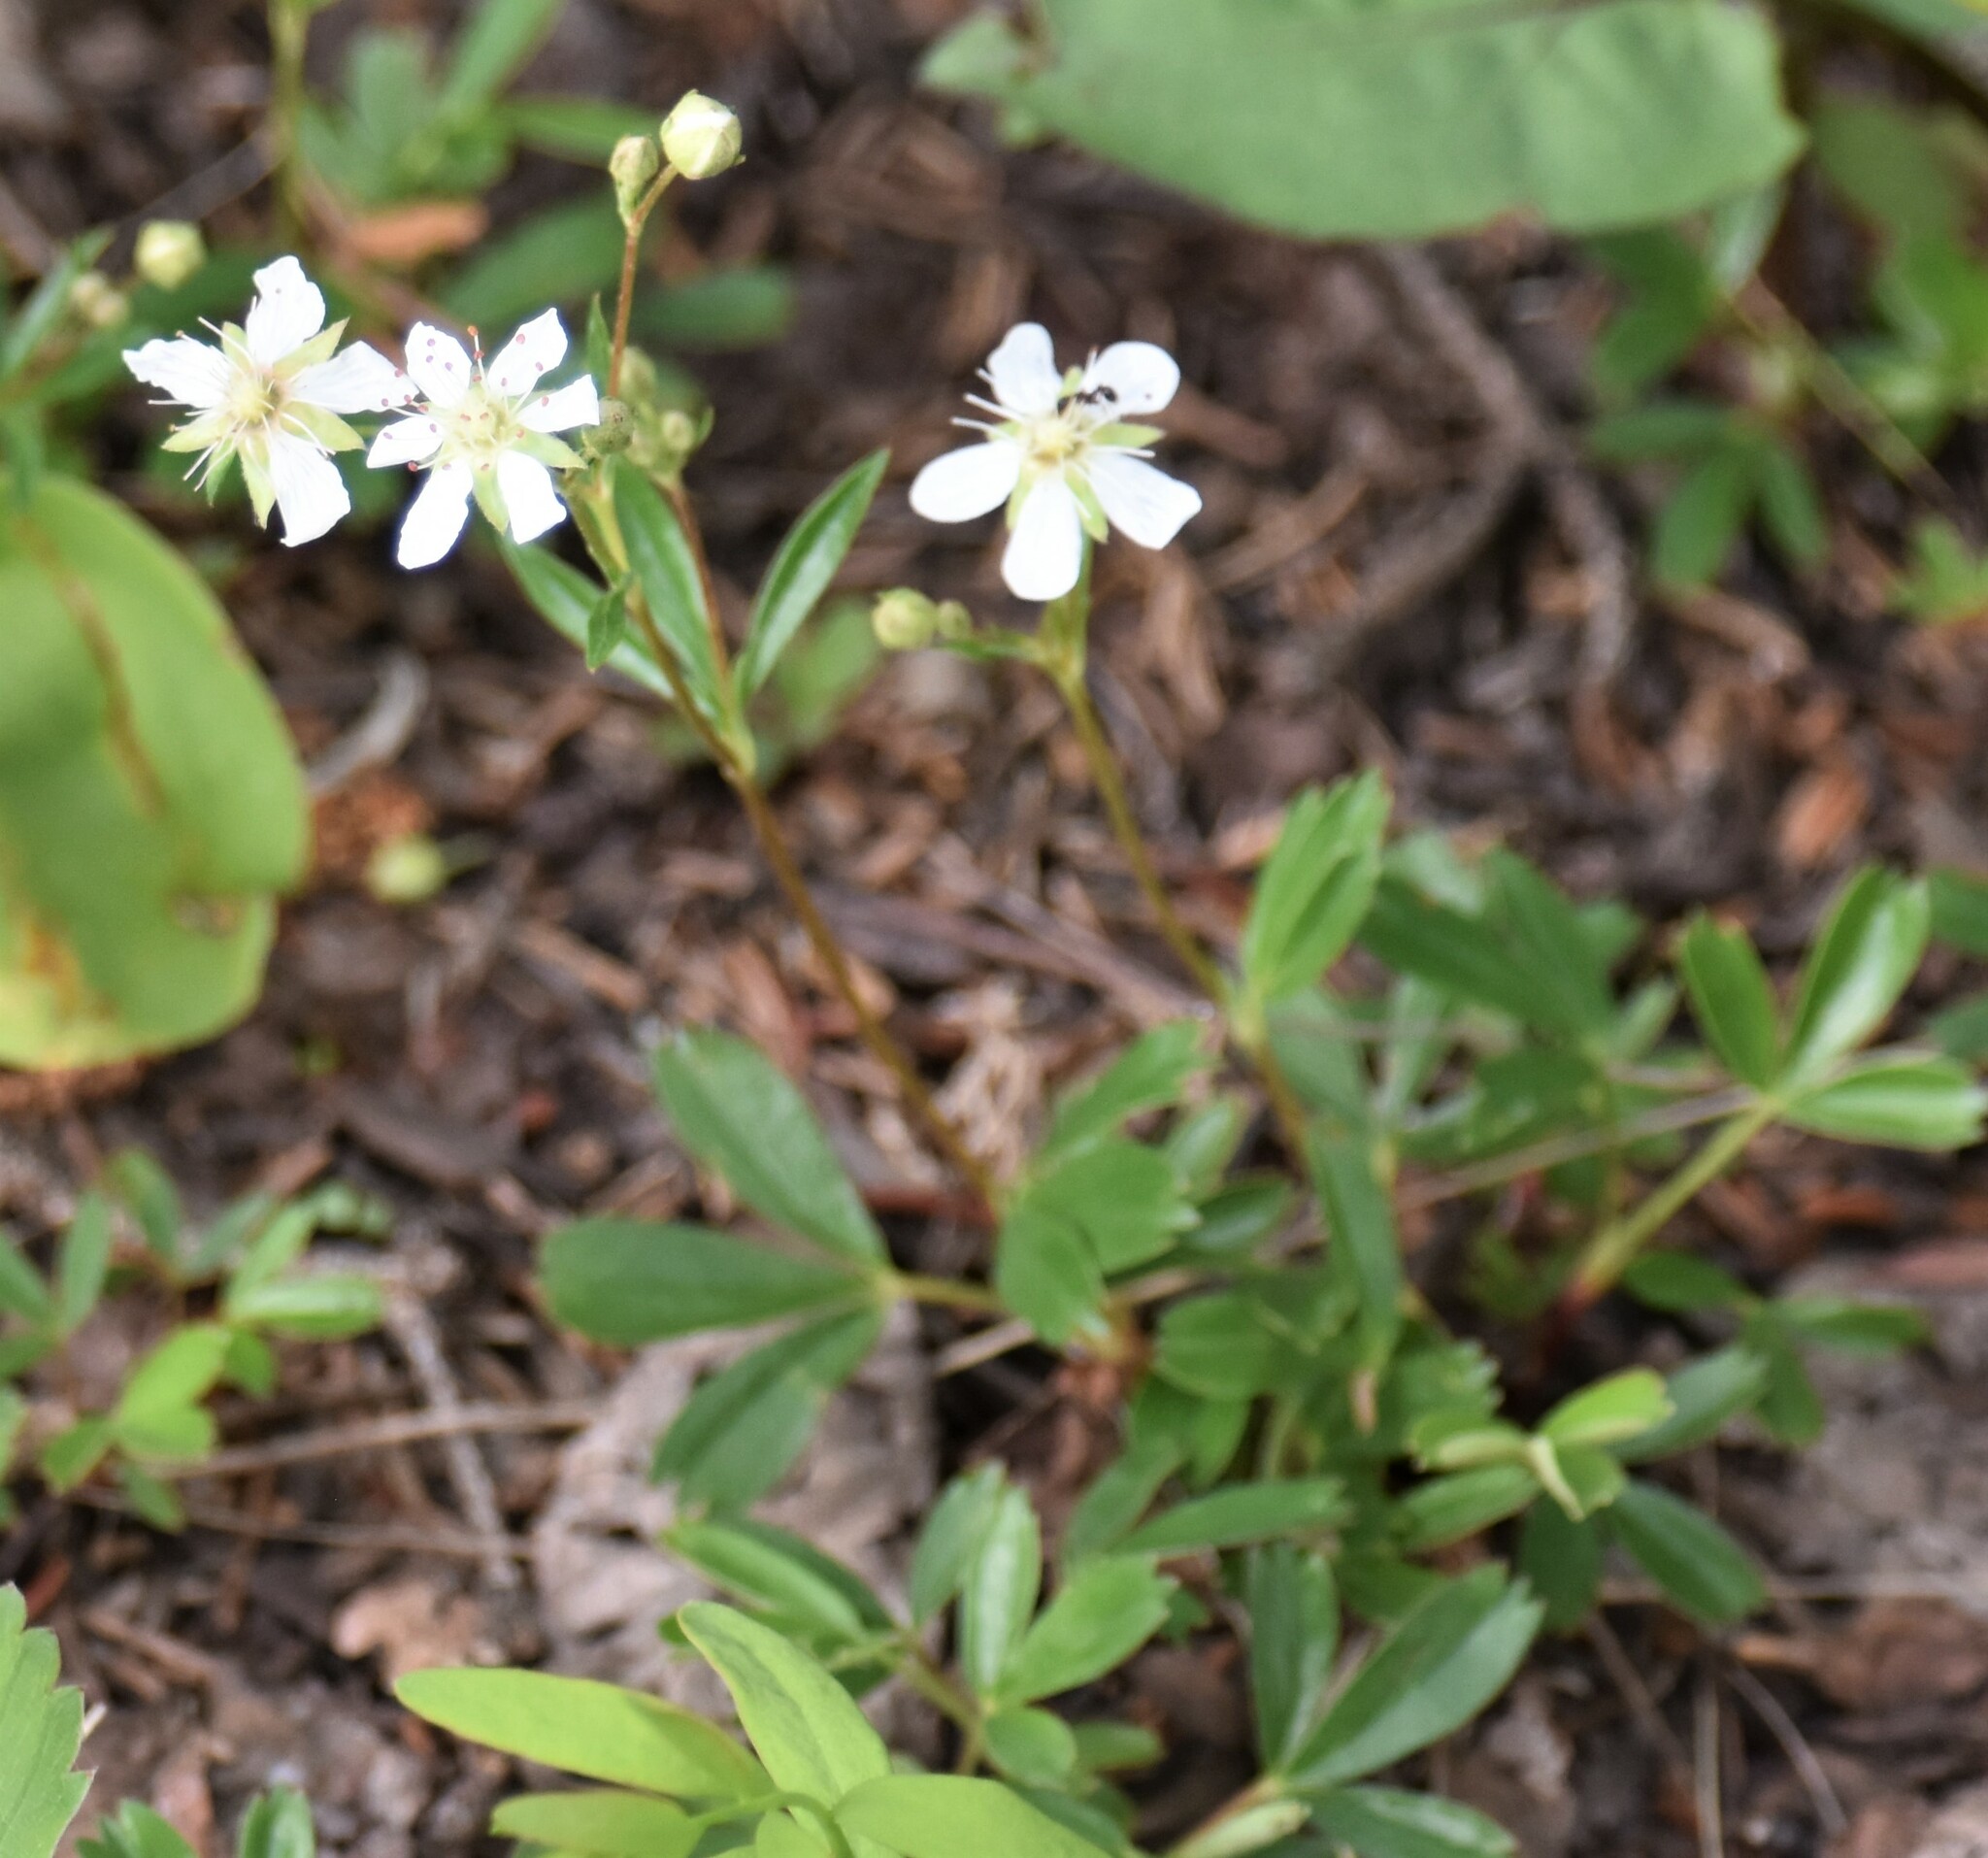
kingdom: Plantae
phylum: Tracheophyta
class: Magnoliopsida
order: Rosales
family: Rosaceae
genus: Sibbaldia
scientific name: Sibbaldia tridentata
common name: Three-toothed cinquefoil
